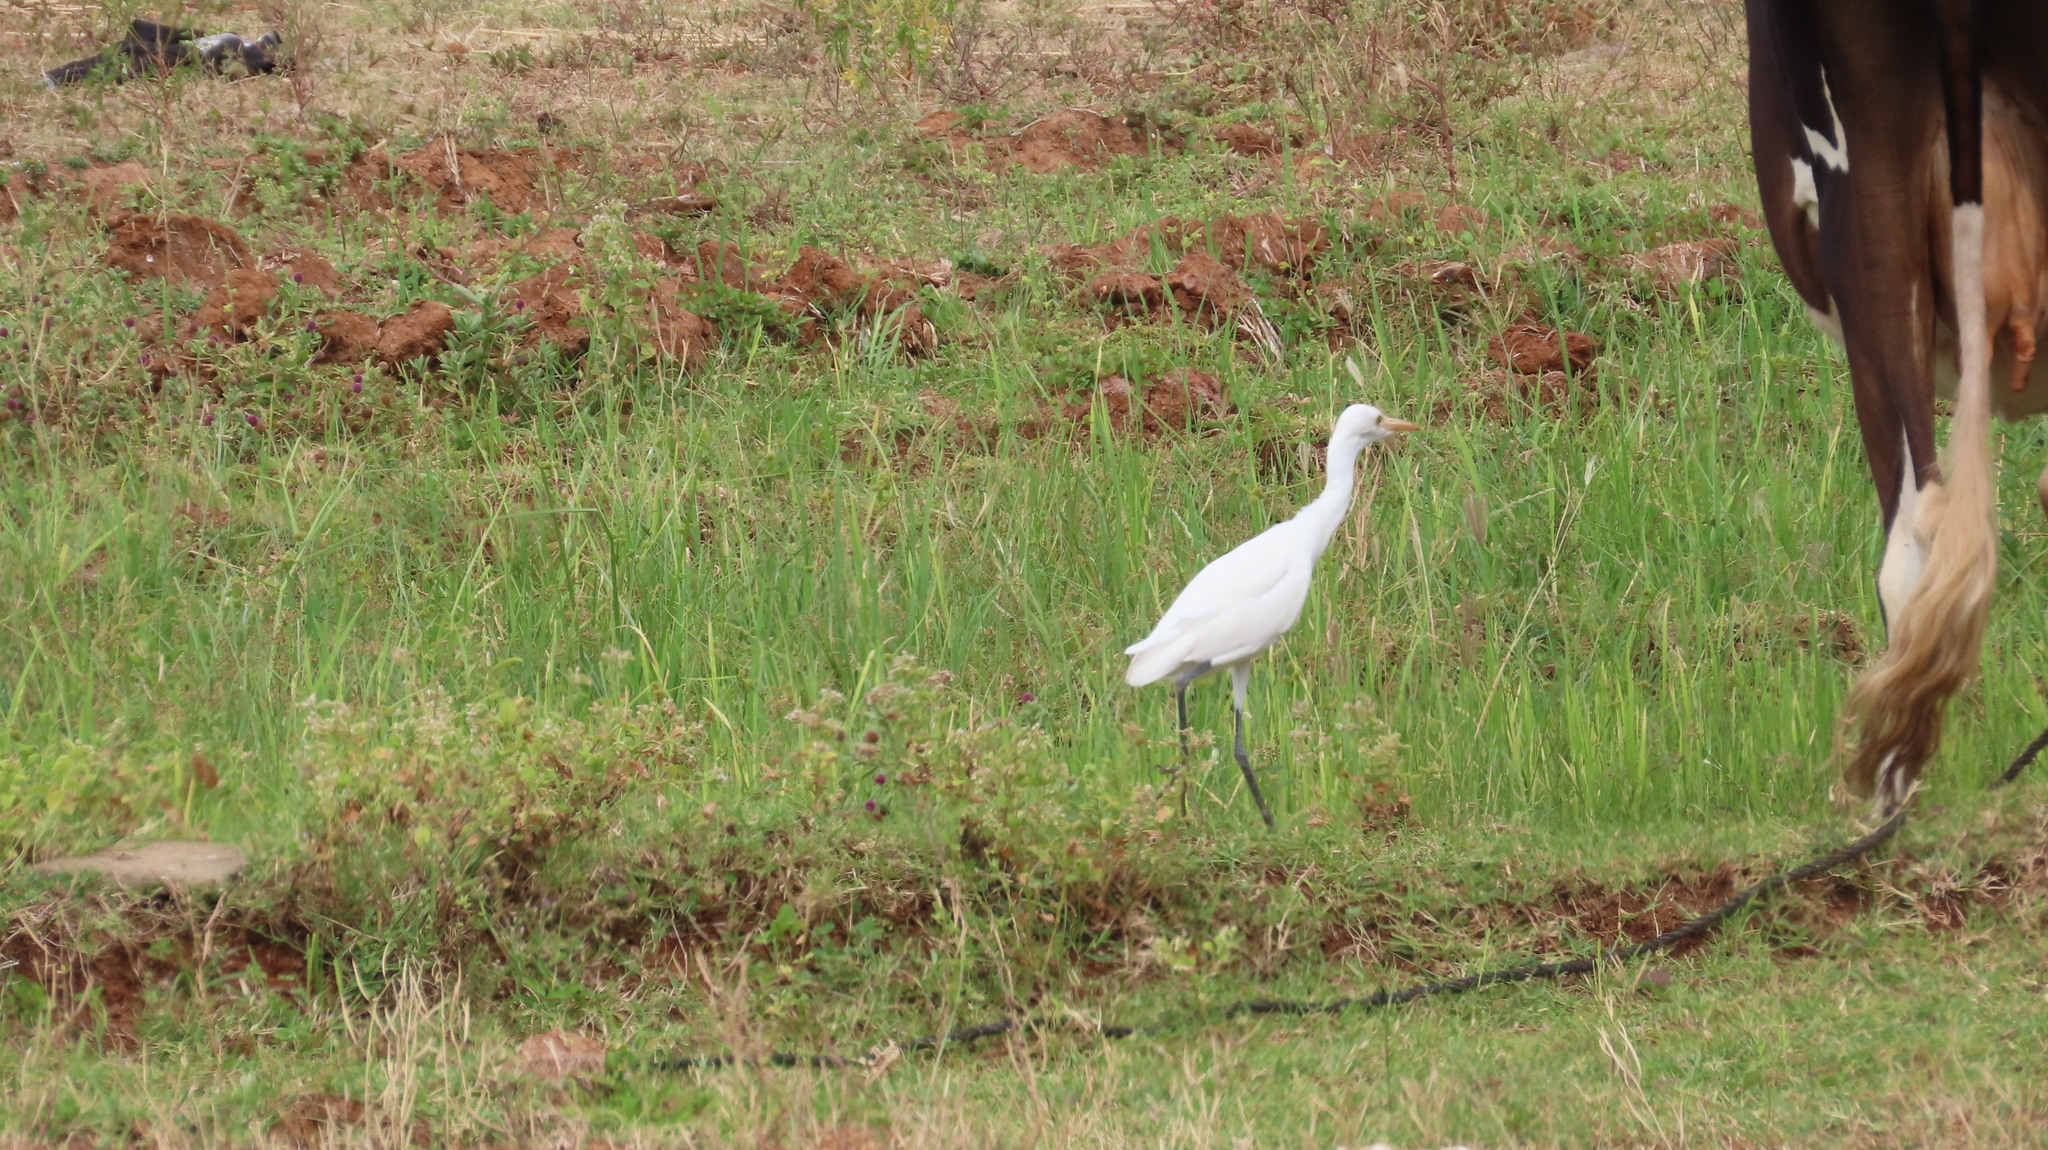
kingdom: Animalia
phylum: Chordata
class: Aves
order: Pelecaniformes
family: Ardeidae
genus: Bubulcus
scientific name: Bubulcus coromandus
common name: Eastern cattle egret
